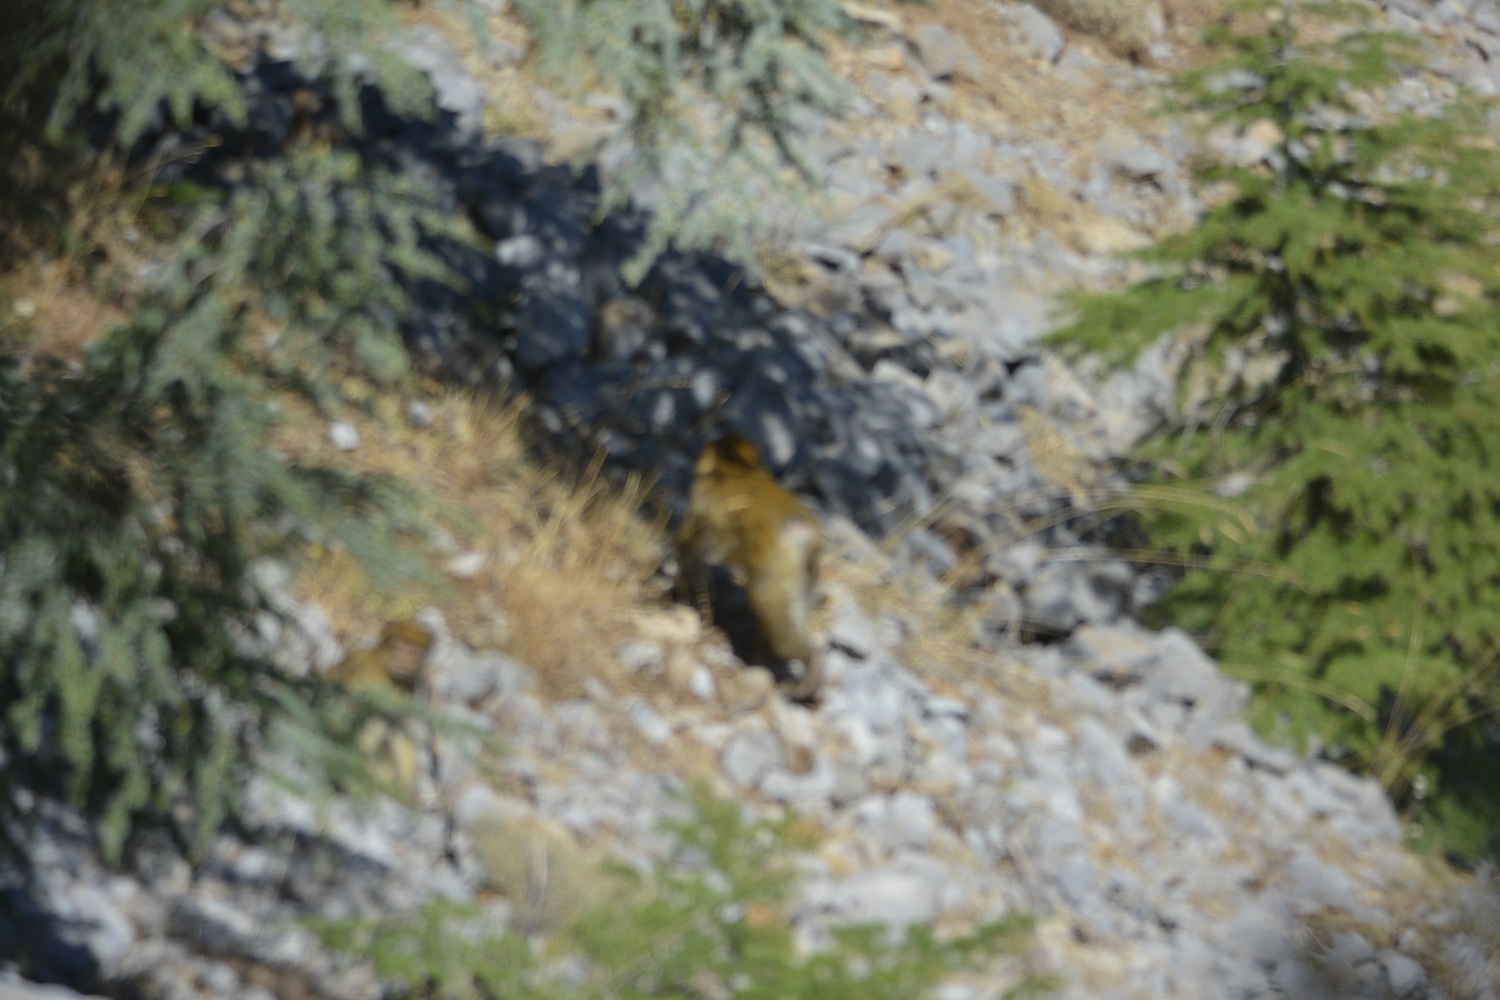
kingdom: Animalia
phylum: Chordata
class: Mammalia
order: Primates
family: Cercopithecidae
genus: Macaca
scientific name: Macaca sylvanus
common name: Barbary macaque
